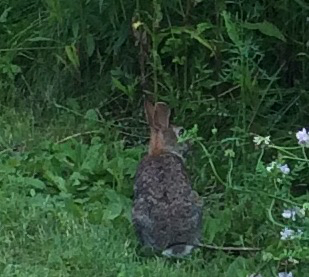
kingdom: Animalia
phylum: Chordata
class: Mammalia
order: Lagomorpha
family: Leporidae
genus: Sylvilagus
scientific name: Sylvilagus floridanus
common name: Eastern cottontail
